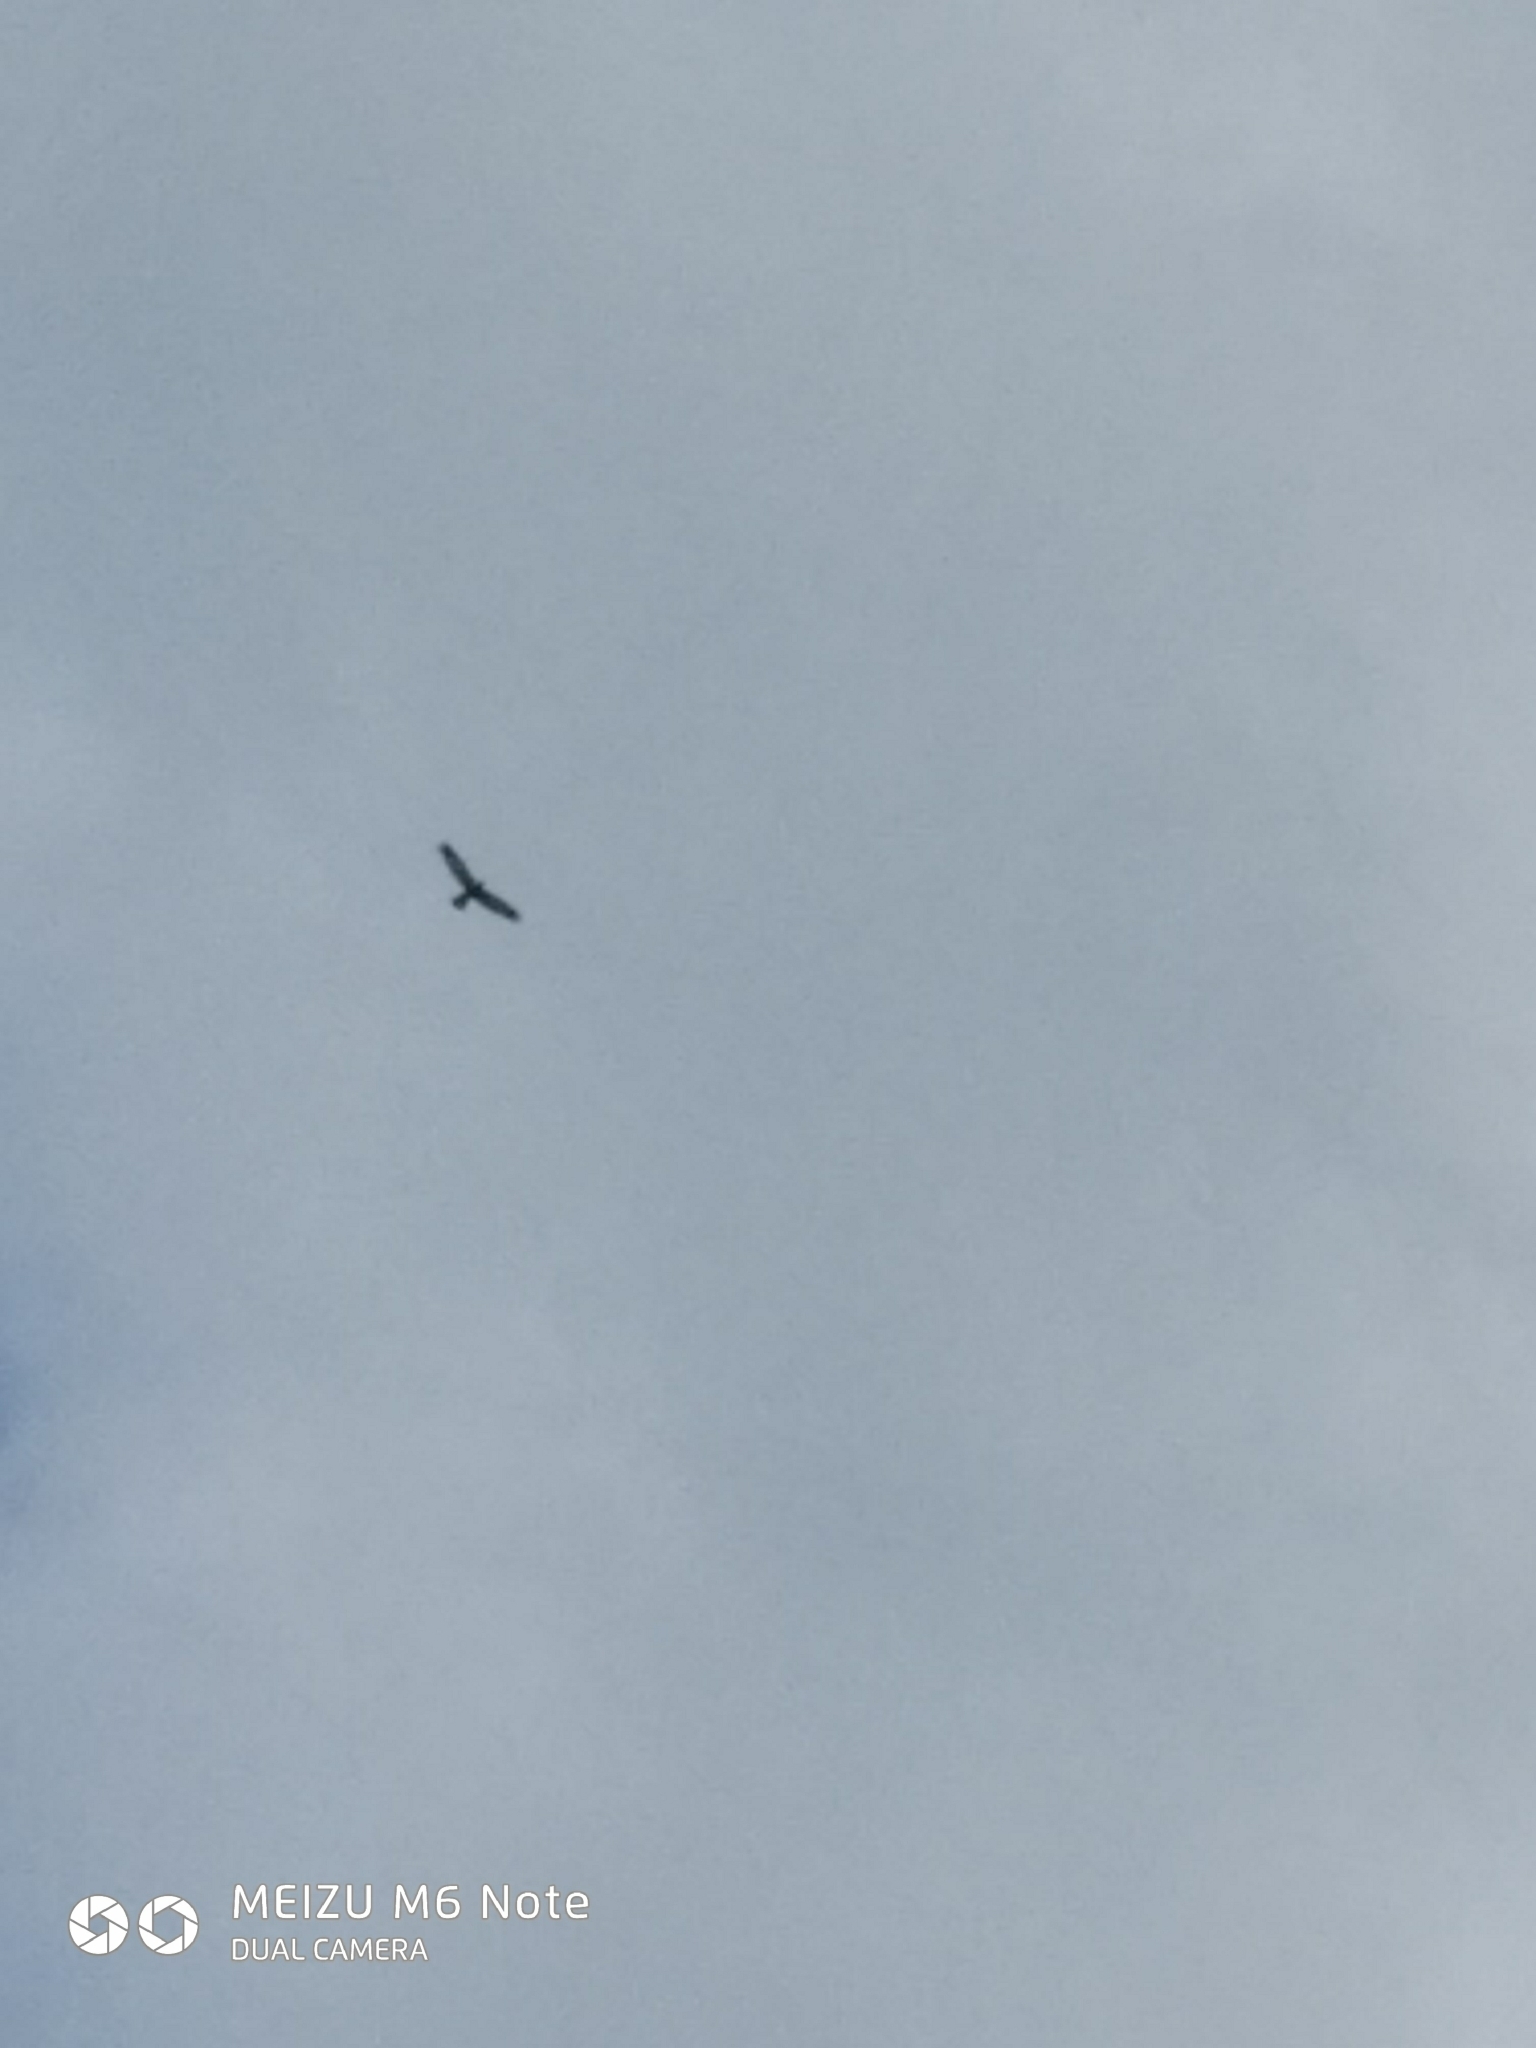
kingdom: Animalia
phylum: Chordata
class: Aves
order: Accipitriformes
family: Accipitridae
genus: Circus
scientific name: Circus aeruginosus
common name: Western marsh harrier
